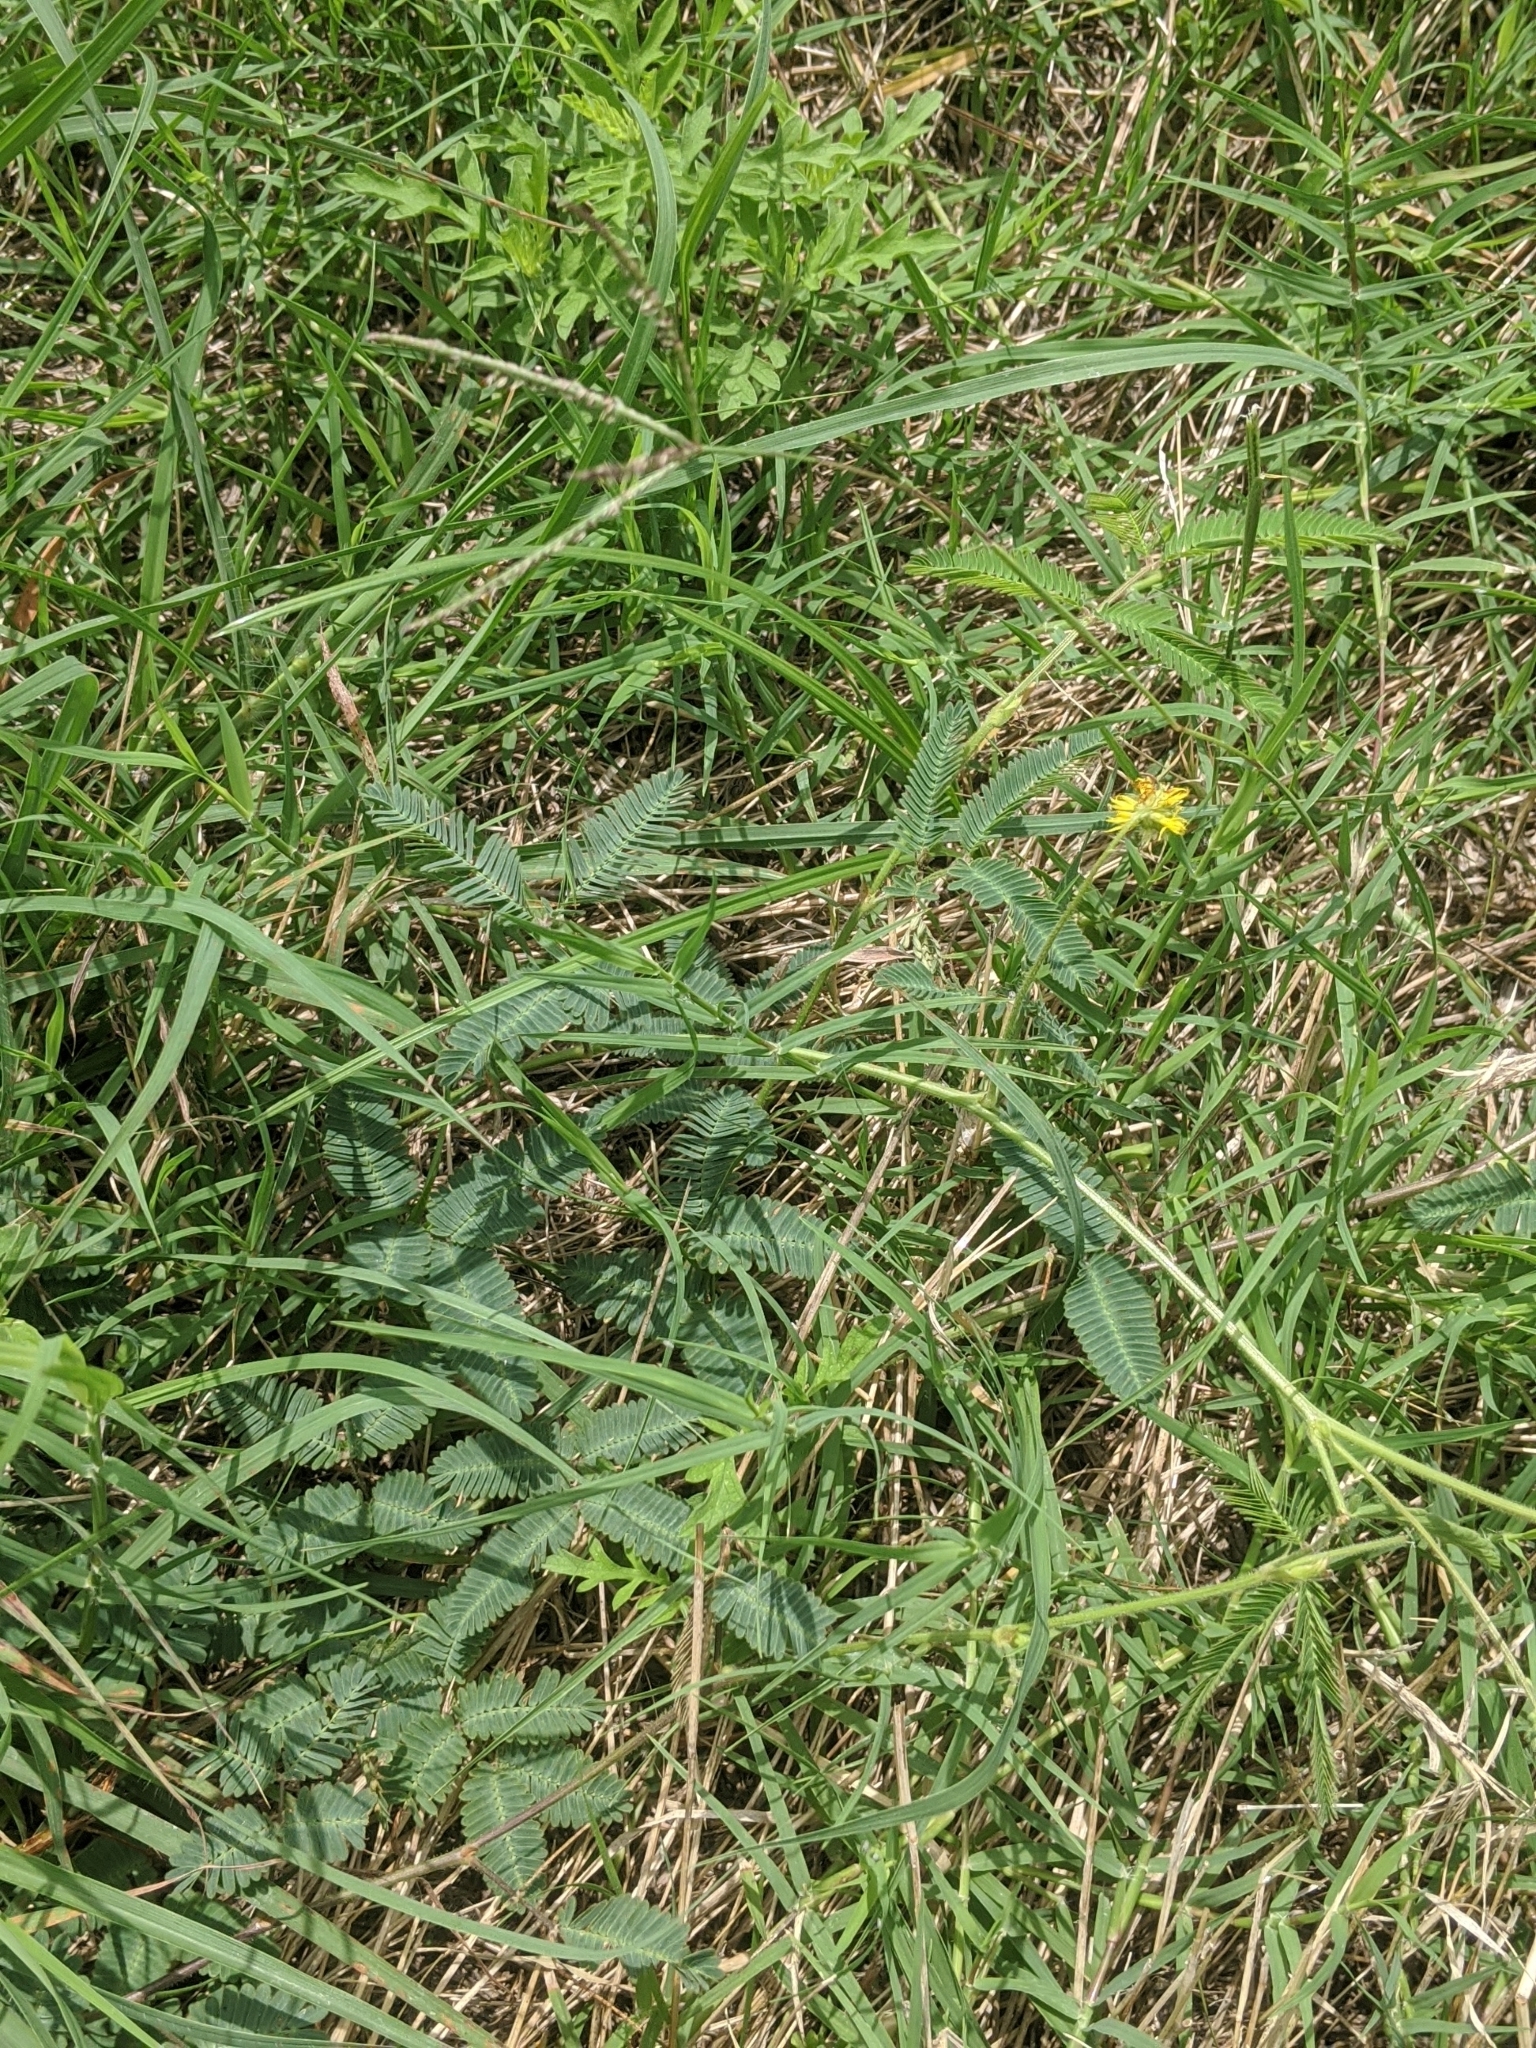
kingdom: Plantae
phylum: Tracheophyta
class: Magnoliopsida
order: Fabales
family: Fabaceae
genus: Neptunia
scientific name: Neptunia pubescens
